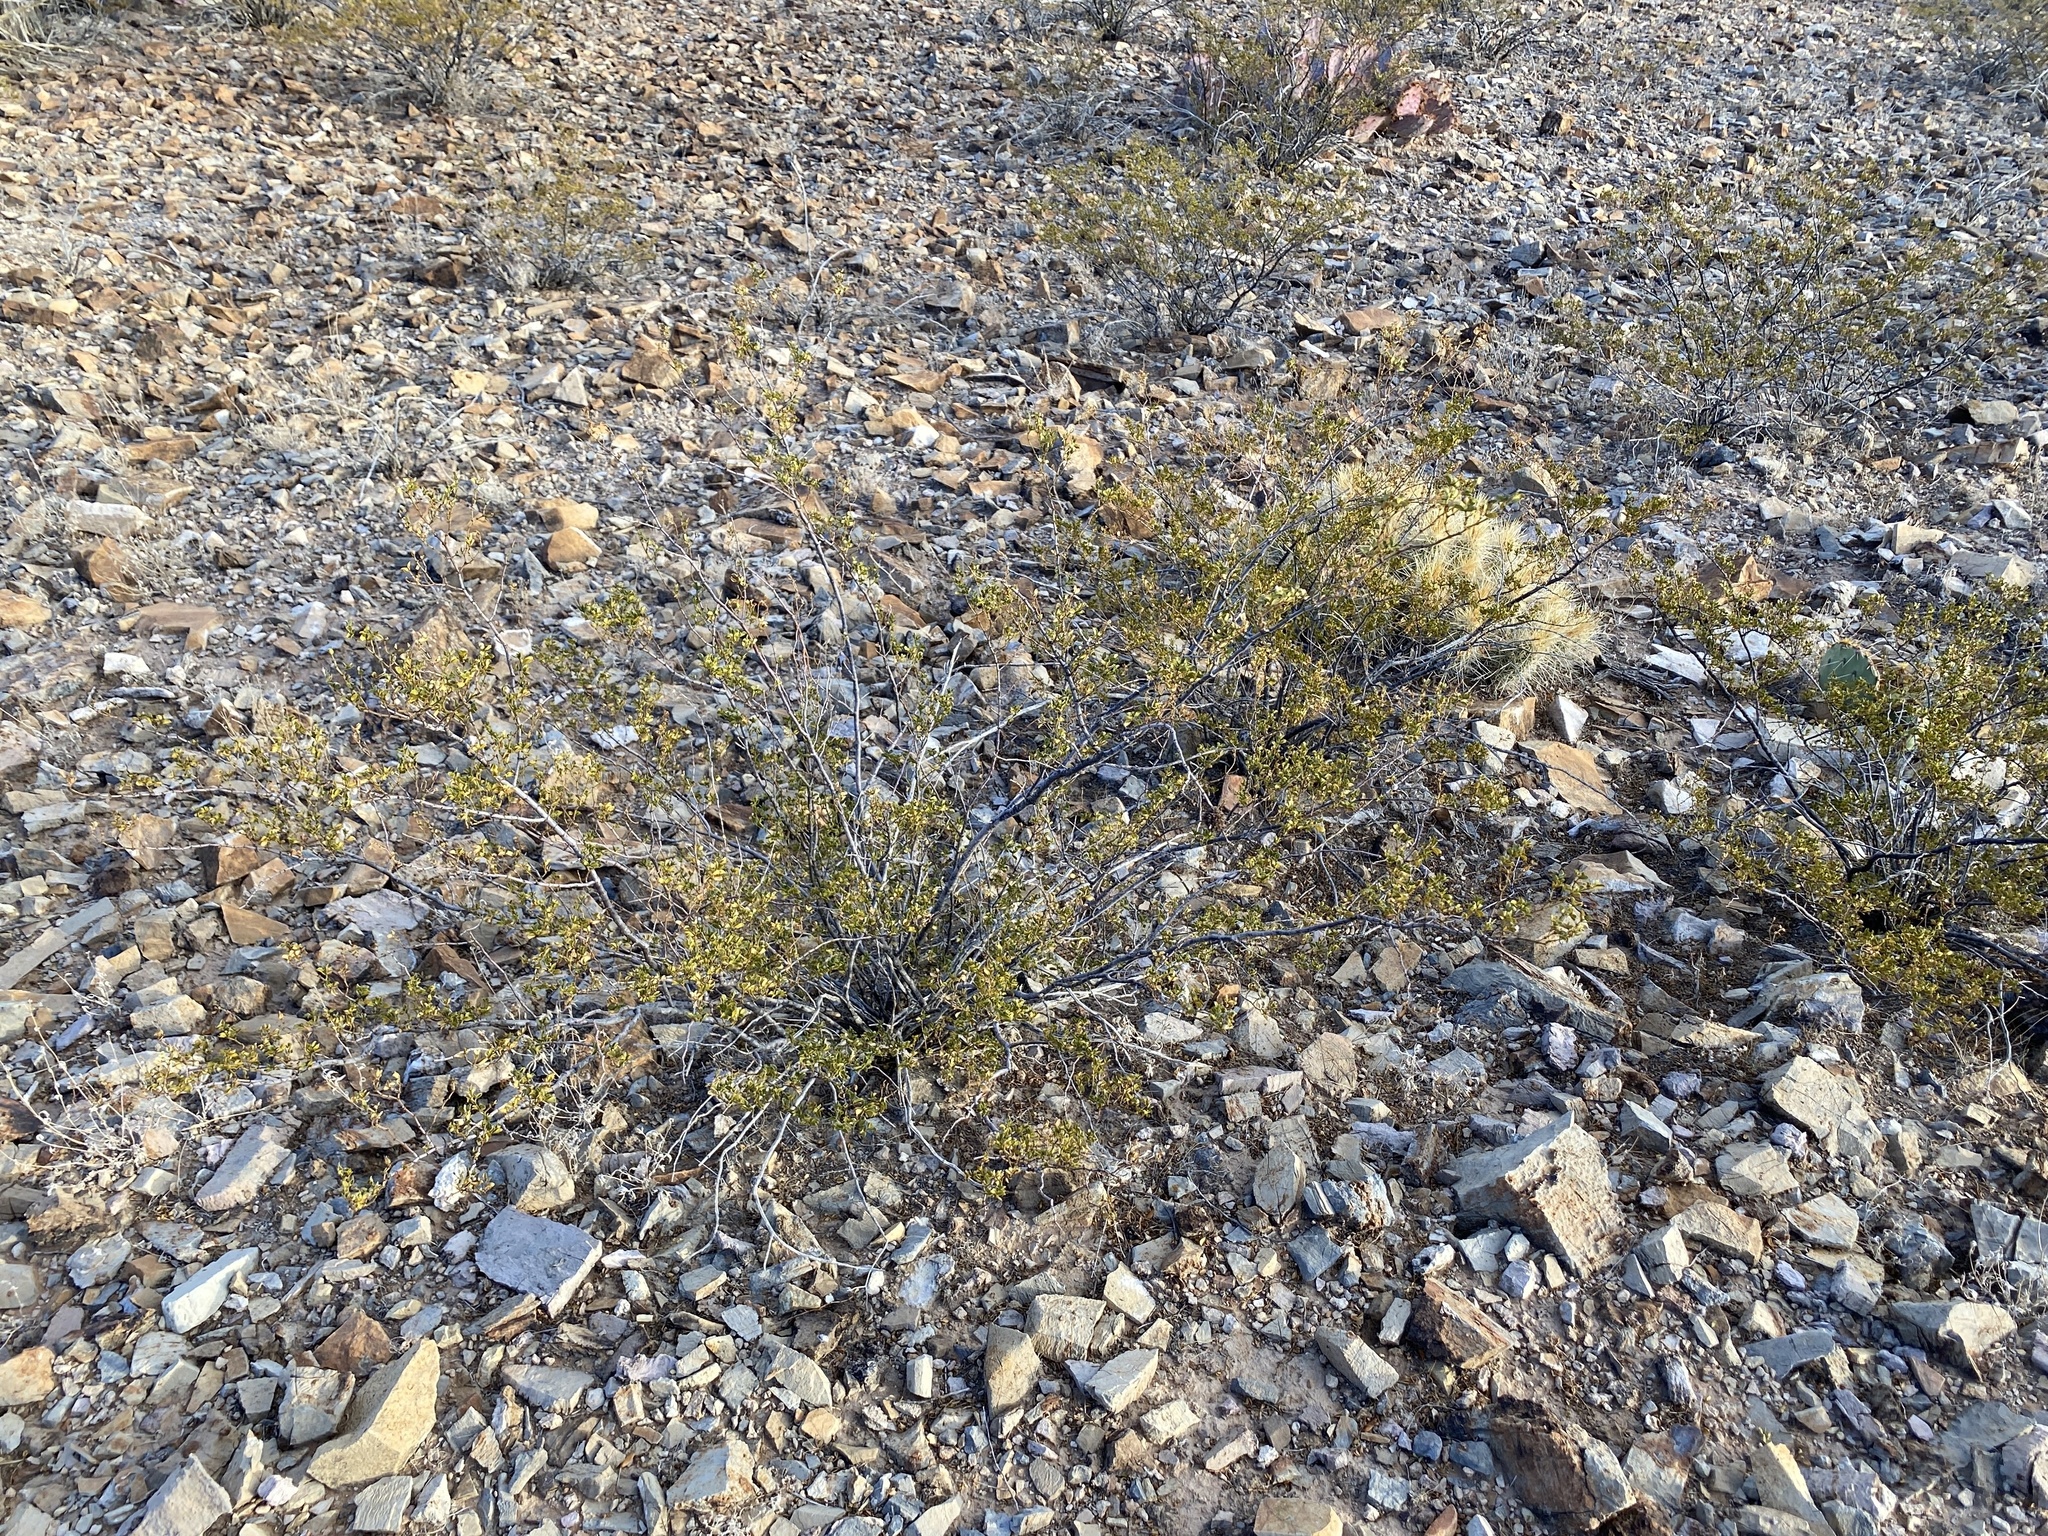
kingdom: Plantae
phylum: Tracheophyta
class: Magnoliopsida
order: Zygophyllales
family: Zygophyllaceae
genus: Larrea
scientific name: Larrea tridentata
